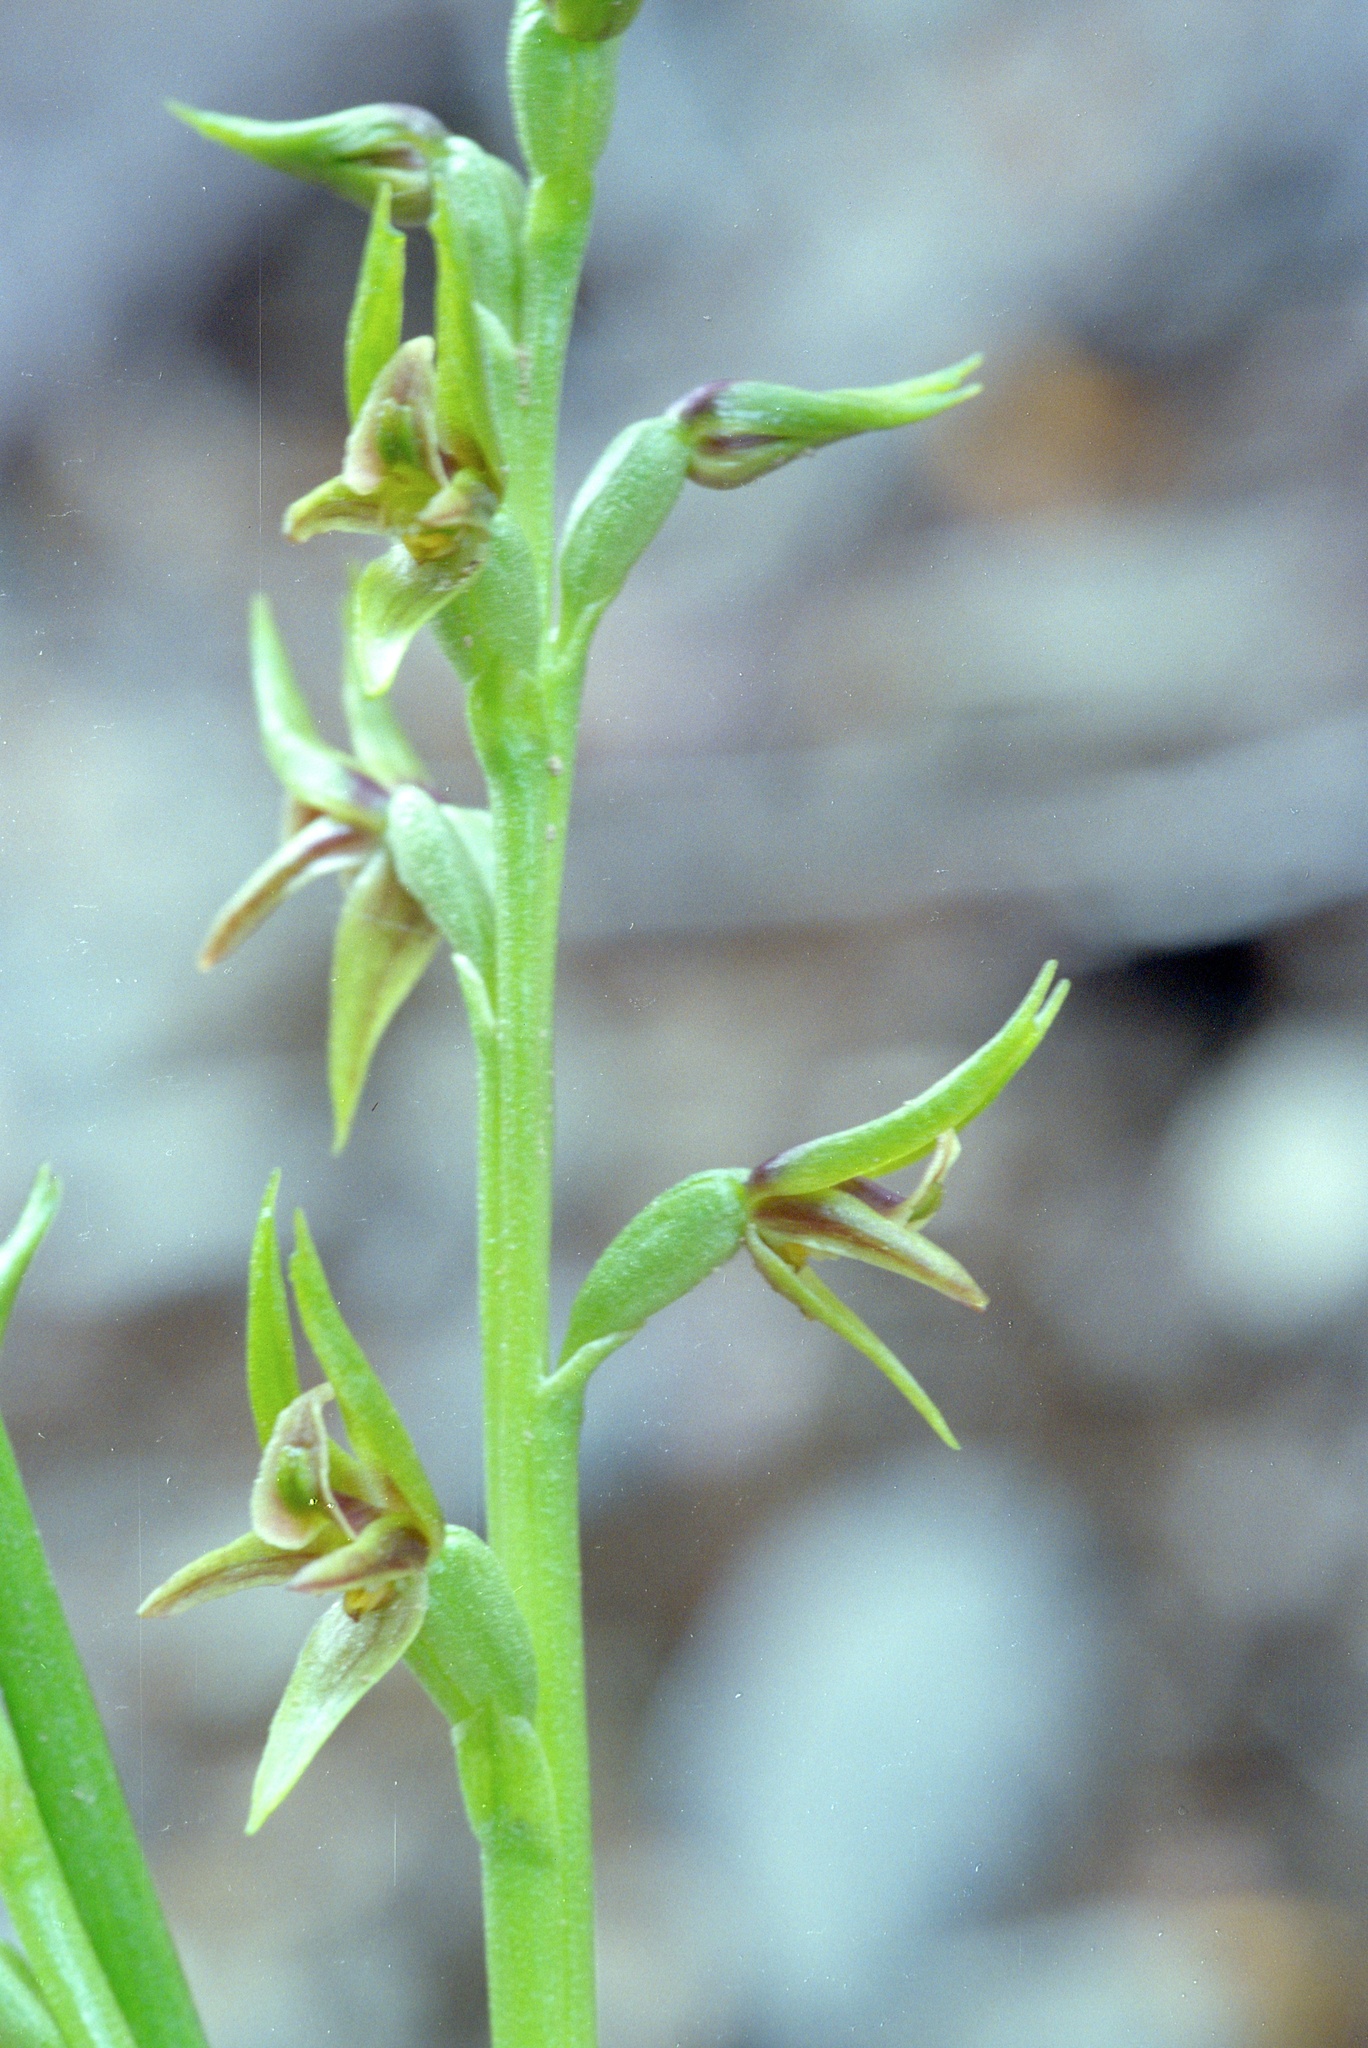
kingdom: Plantae
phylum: Tracheophyta
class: Liliopsida
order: Asparagales
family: Orchidaceae
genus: Prasophyllum
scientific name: Prasophyllum colensoi
